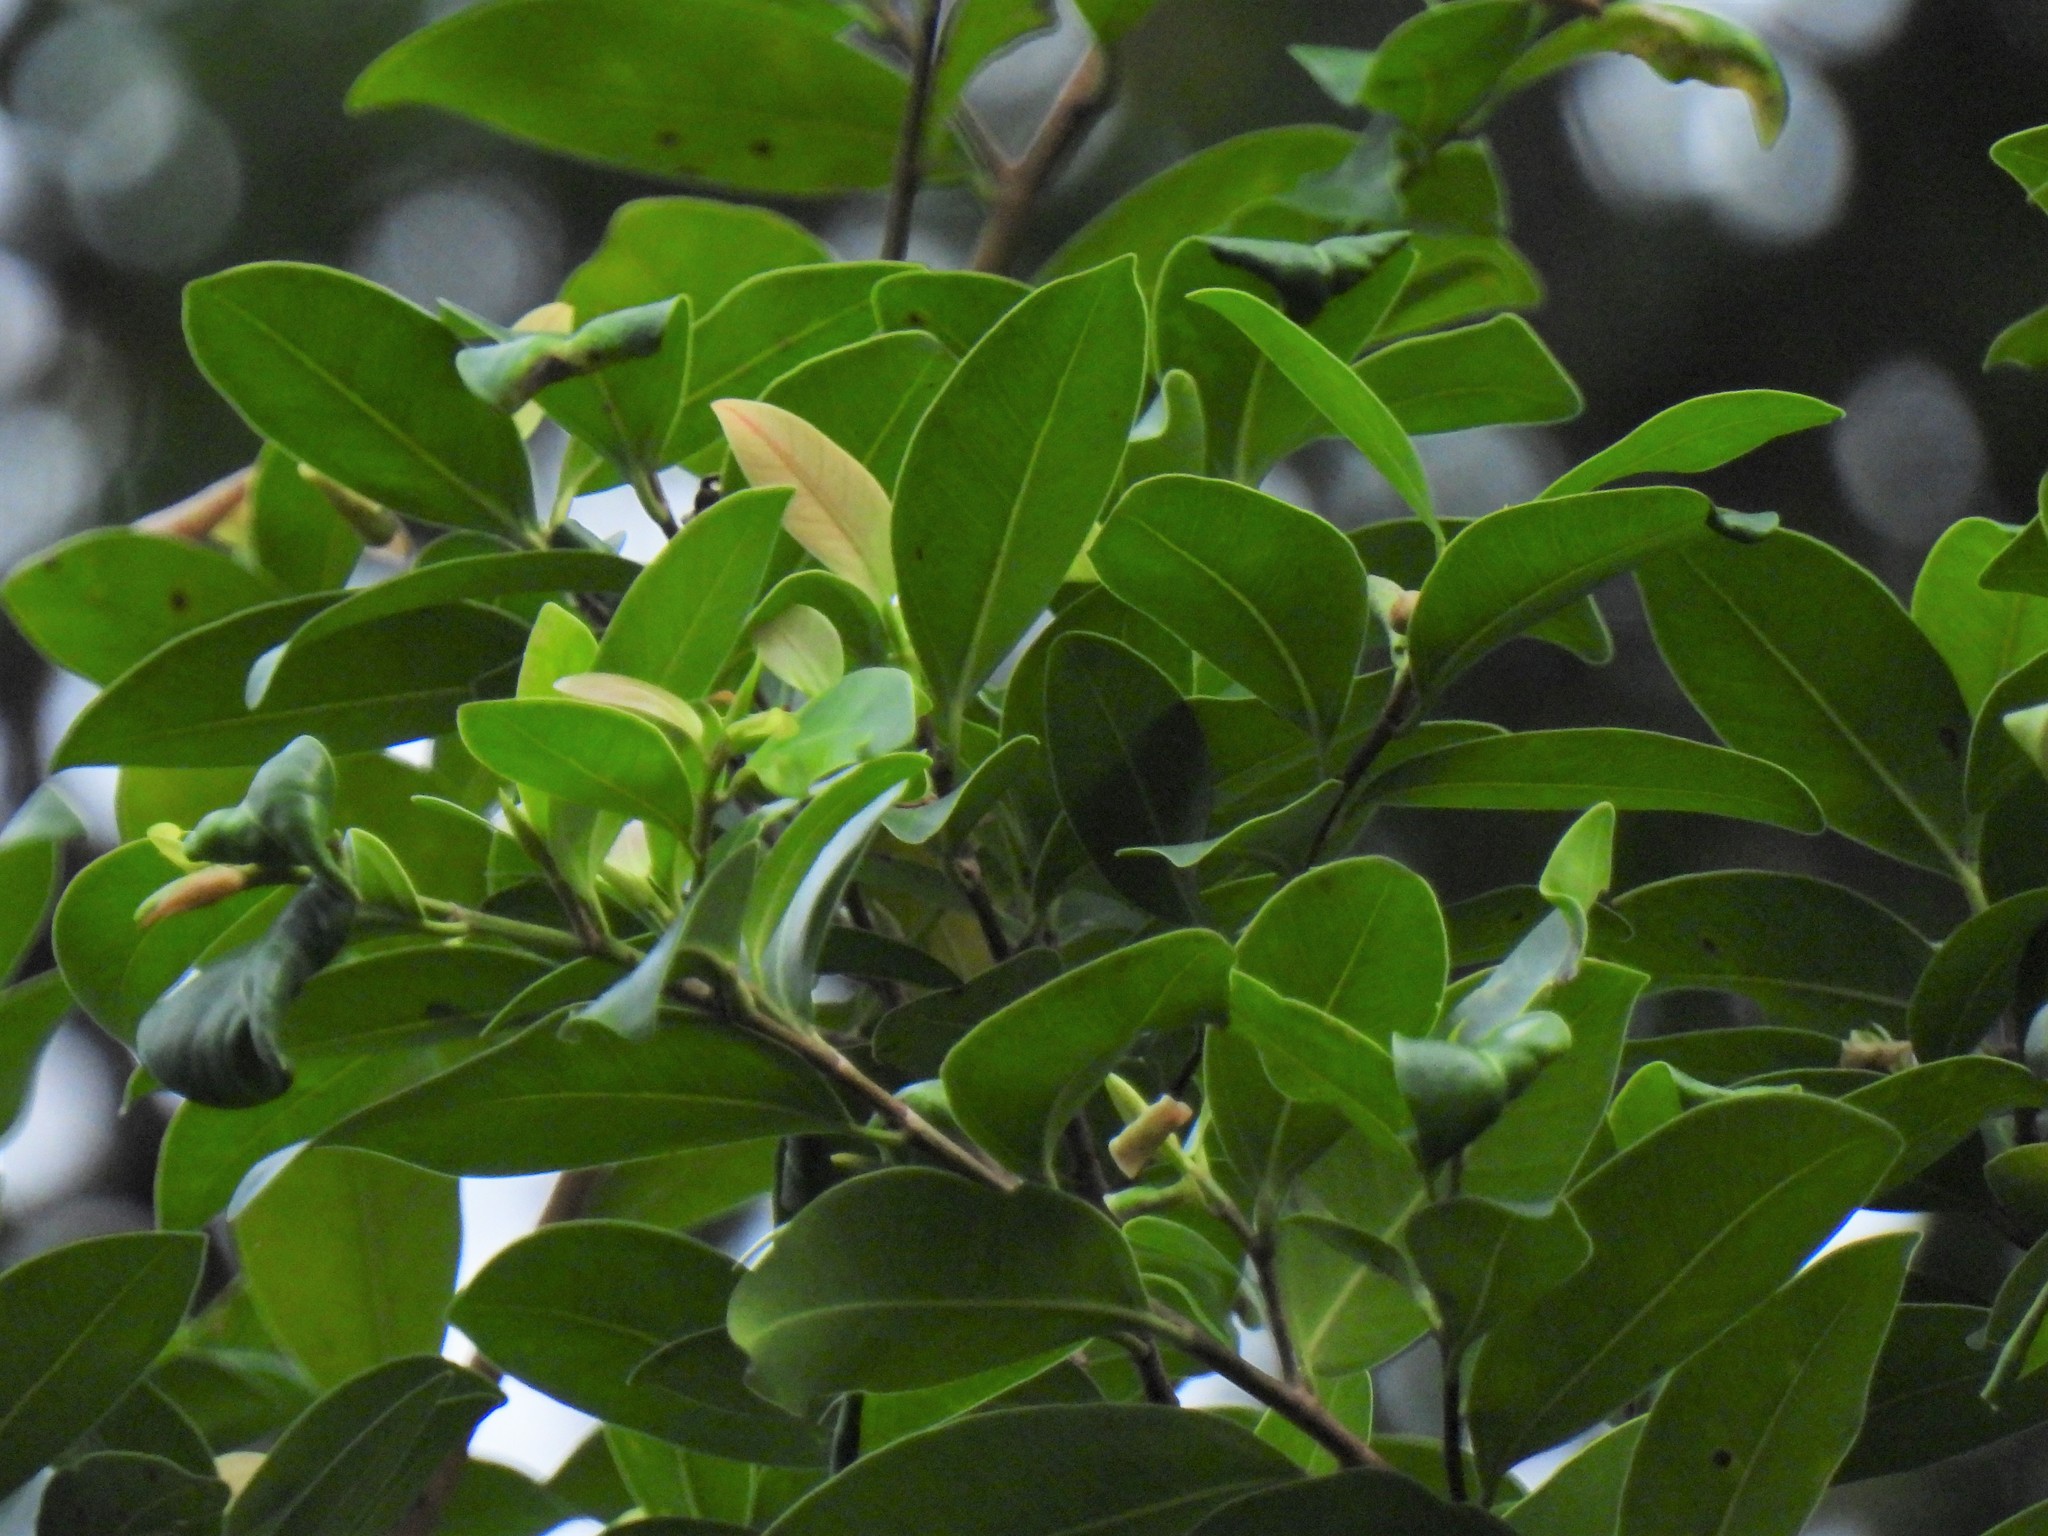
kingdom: Plantae
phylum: Tracheophyta
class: Magnoliopsida
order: Rosales
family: Moraceae
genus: Ficus
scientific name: Ficus microcarpa
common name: Chinese banyan
